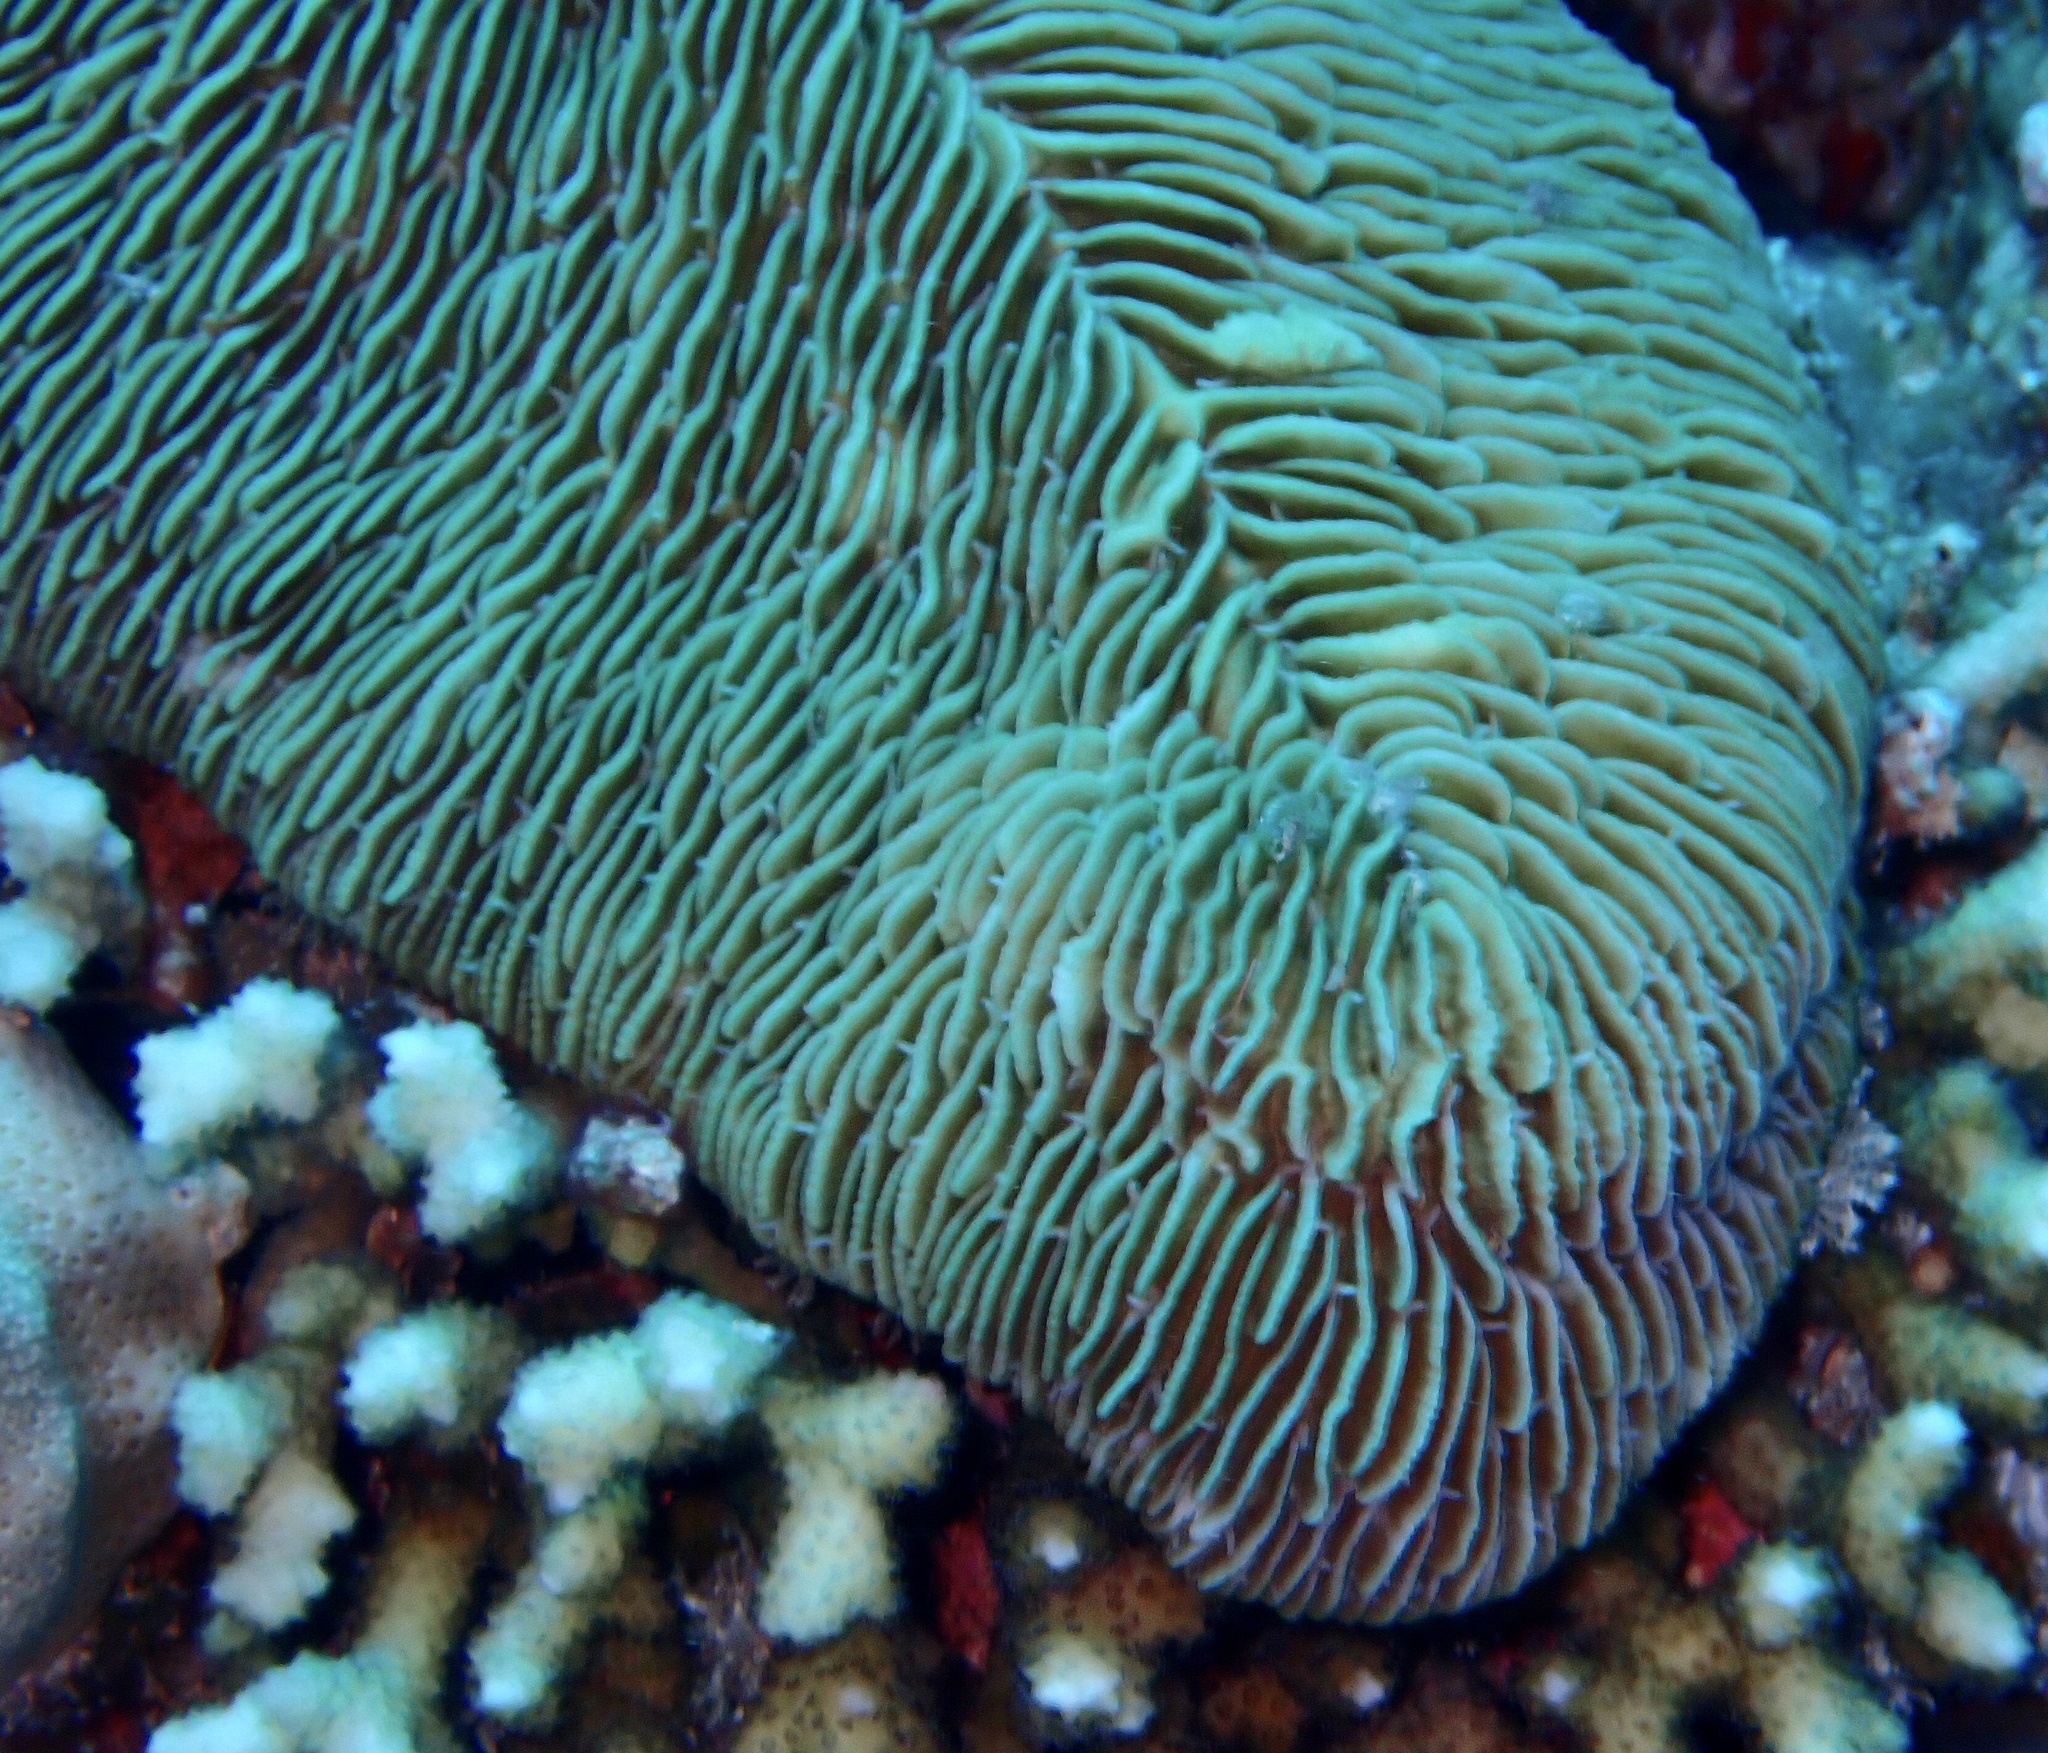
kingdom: Animalia
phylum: Cnidaria
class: Anthozoa
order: Scleractinia
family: Fungiidae
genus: Herpolitha
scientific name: Herpolitha limax
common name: Striate boomerang coral
